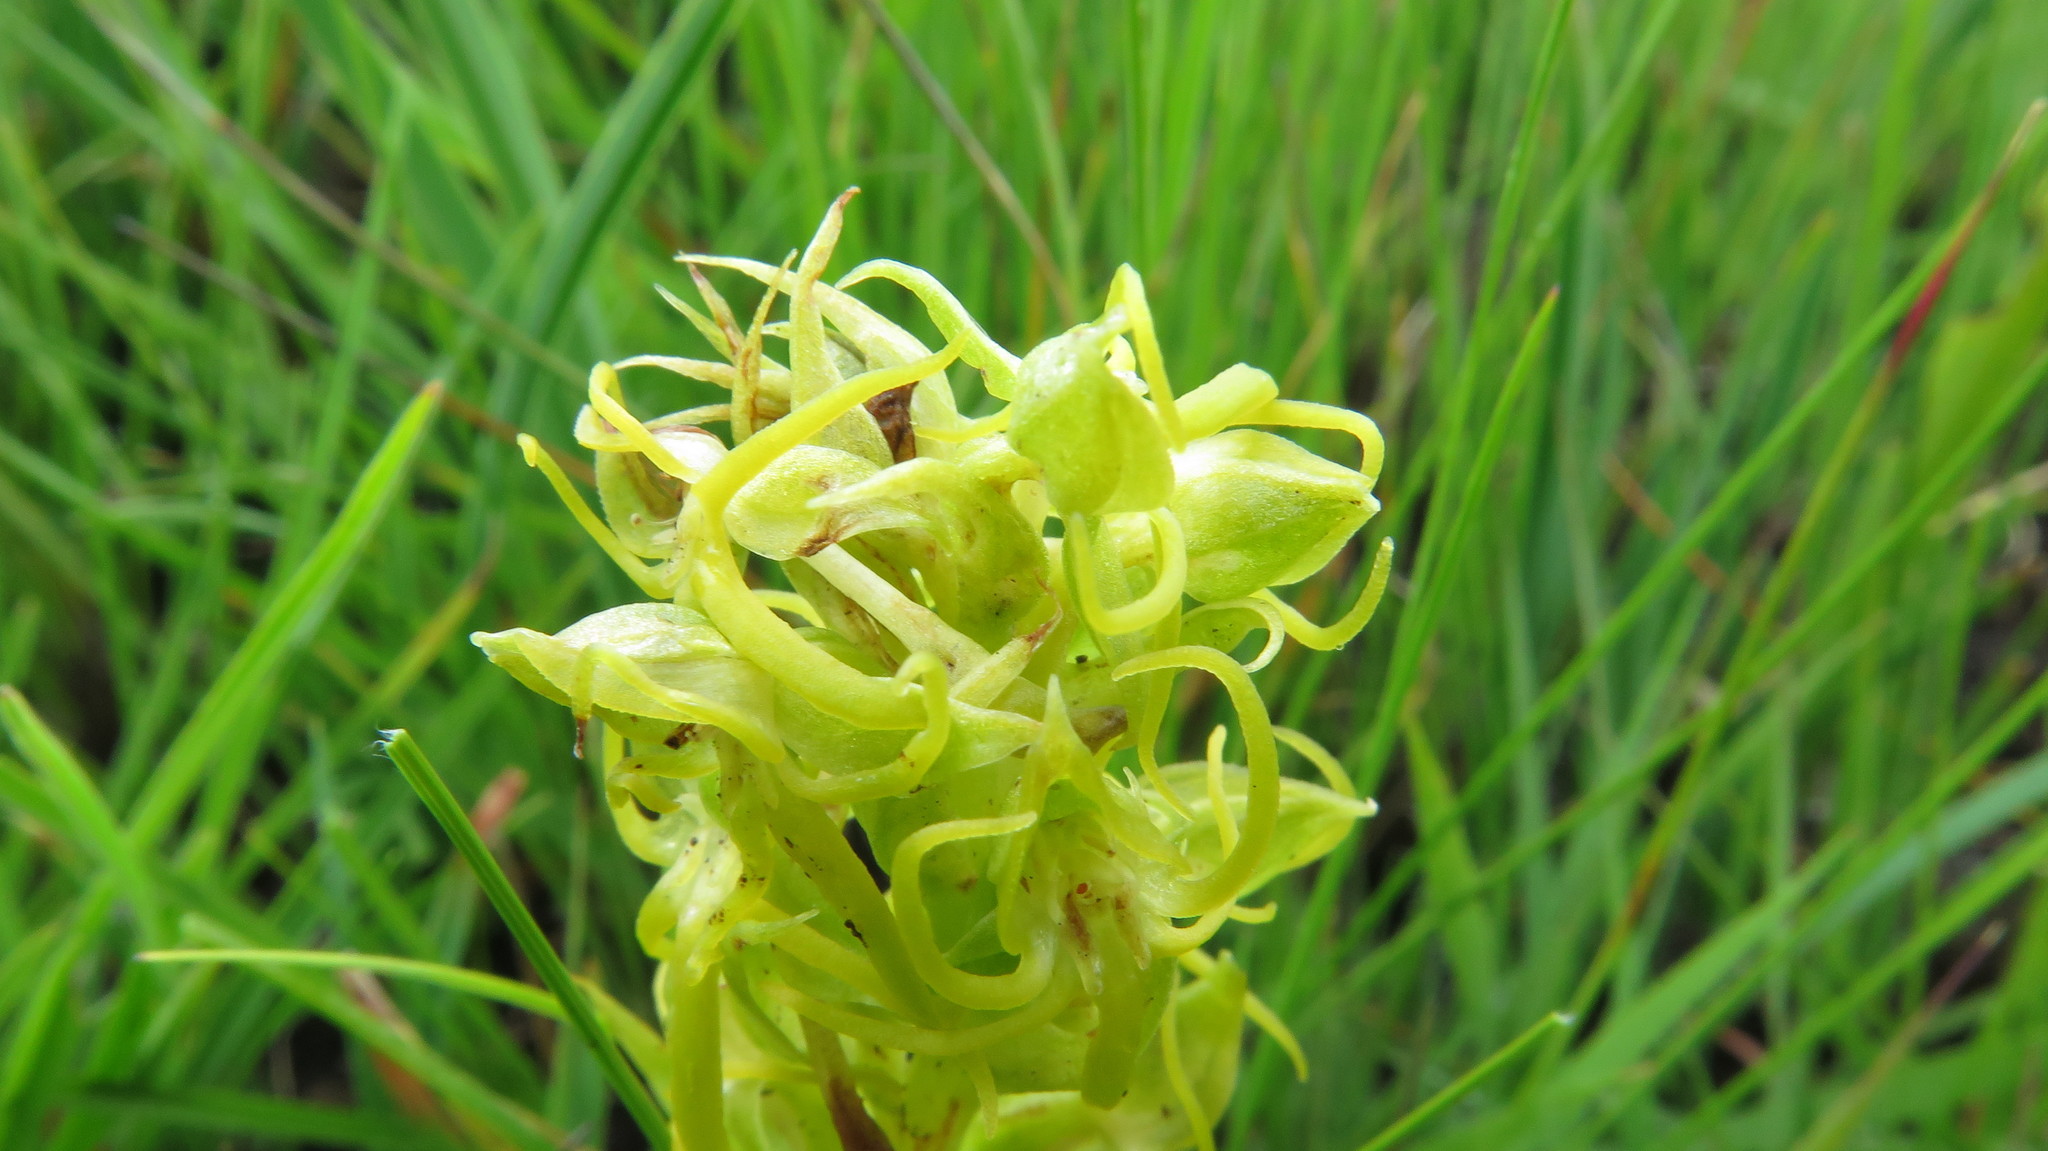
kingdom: Plantae
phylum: Tracheophyta
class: Liliopsida
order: Asparagales
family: Orchidaceae
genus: Habenaria
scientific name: Habenaria lithophila
